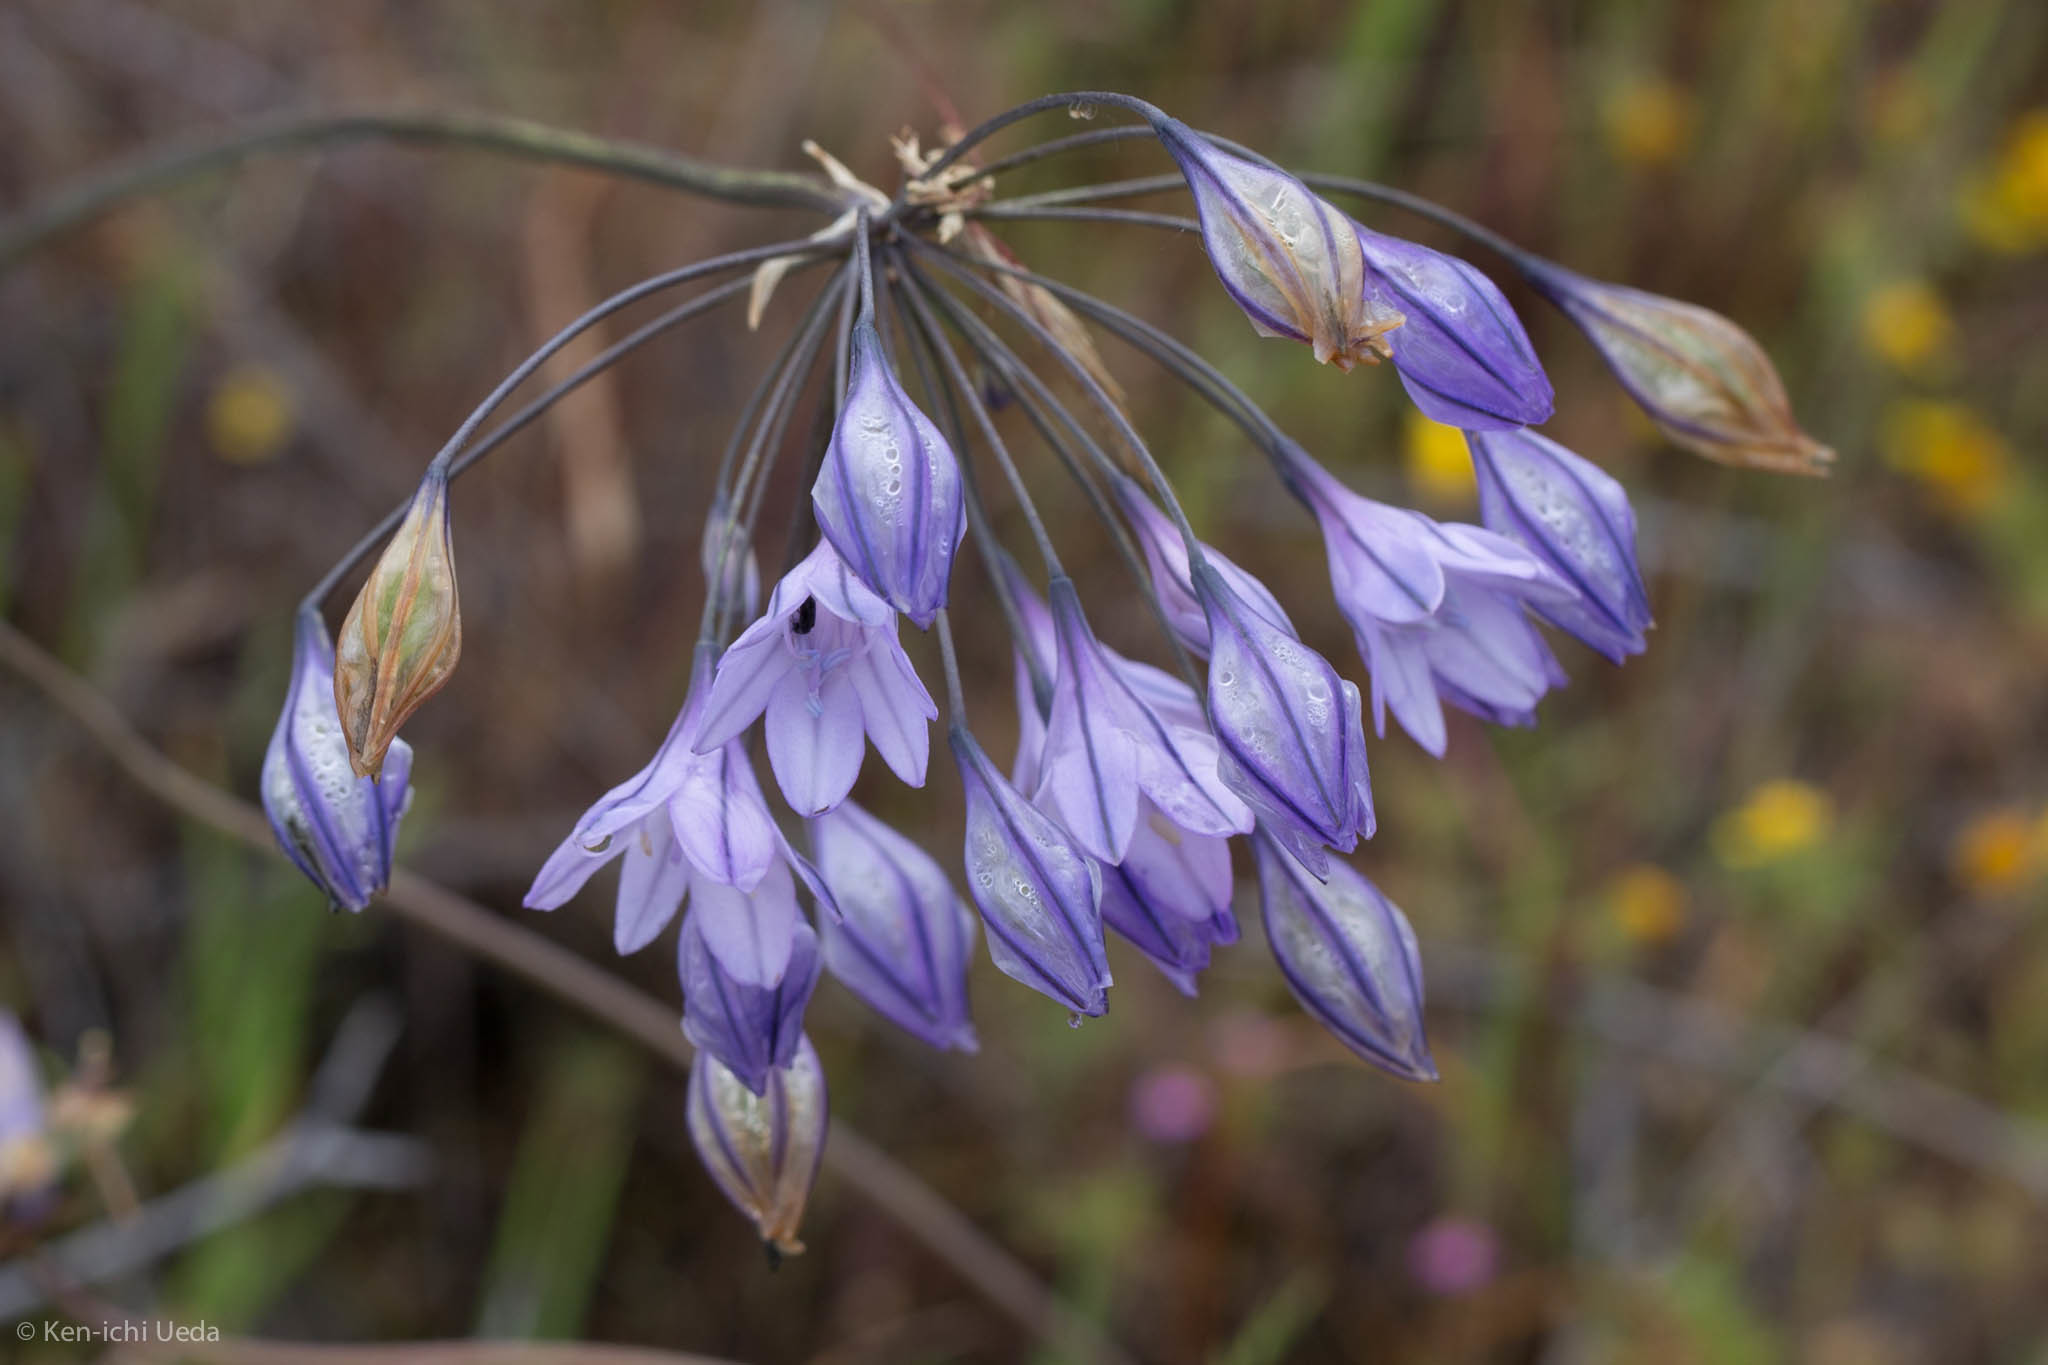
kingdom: Plantae
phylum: Tracheophyta
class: Liliopsida
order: Asparagales
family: Asparagaceae
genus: Triteleia
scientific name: Triteleia laxa
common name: Triplet-lily
